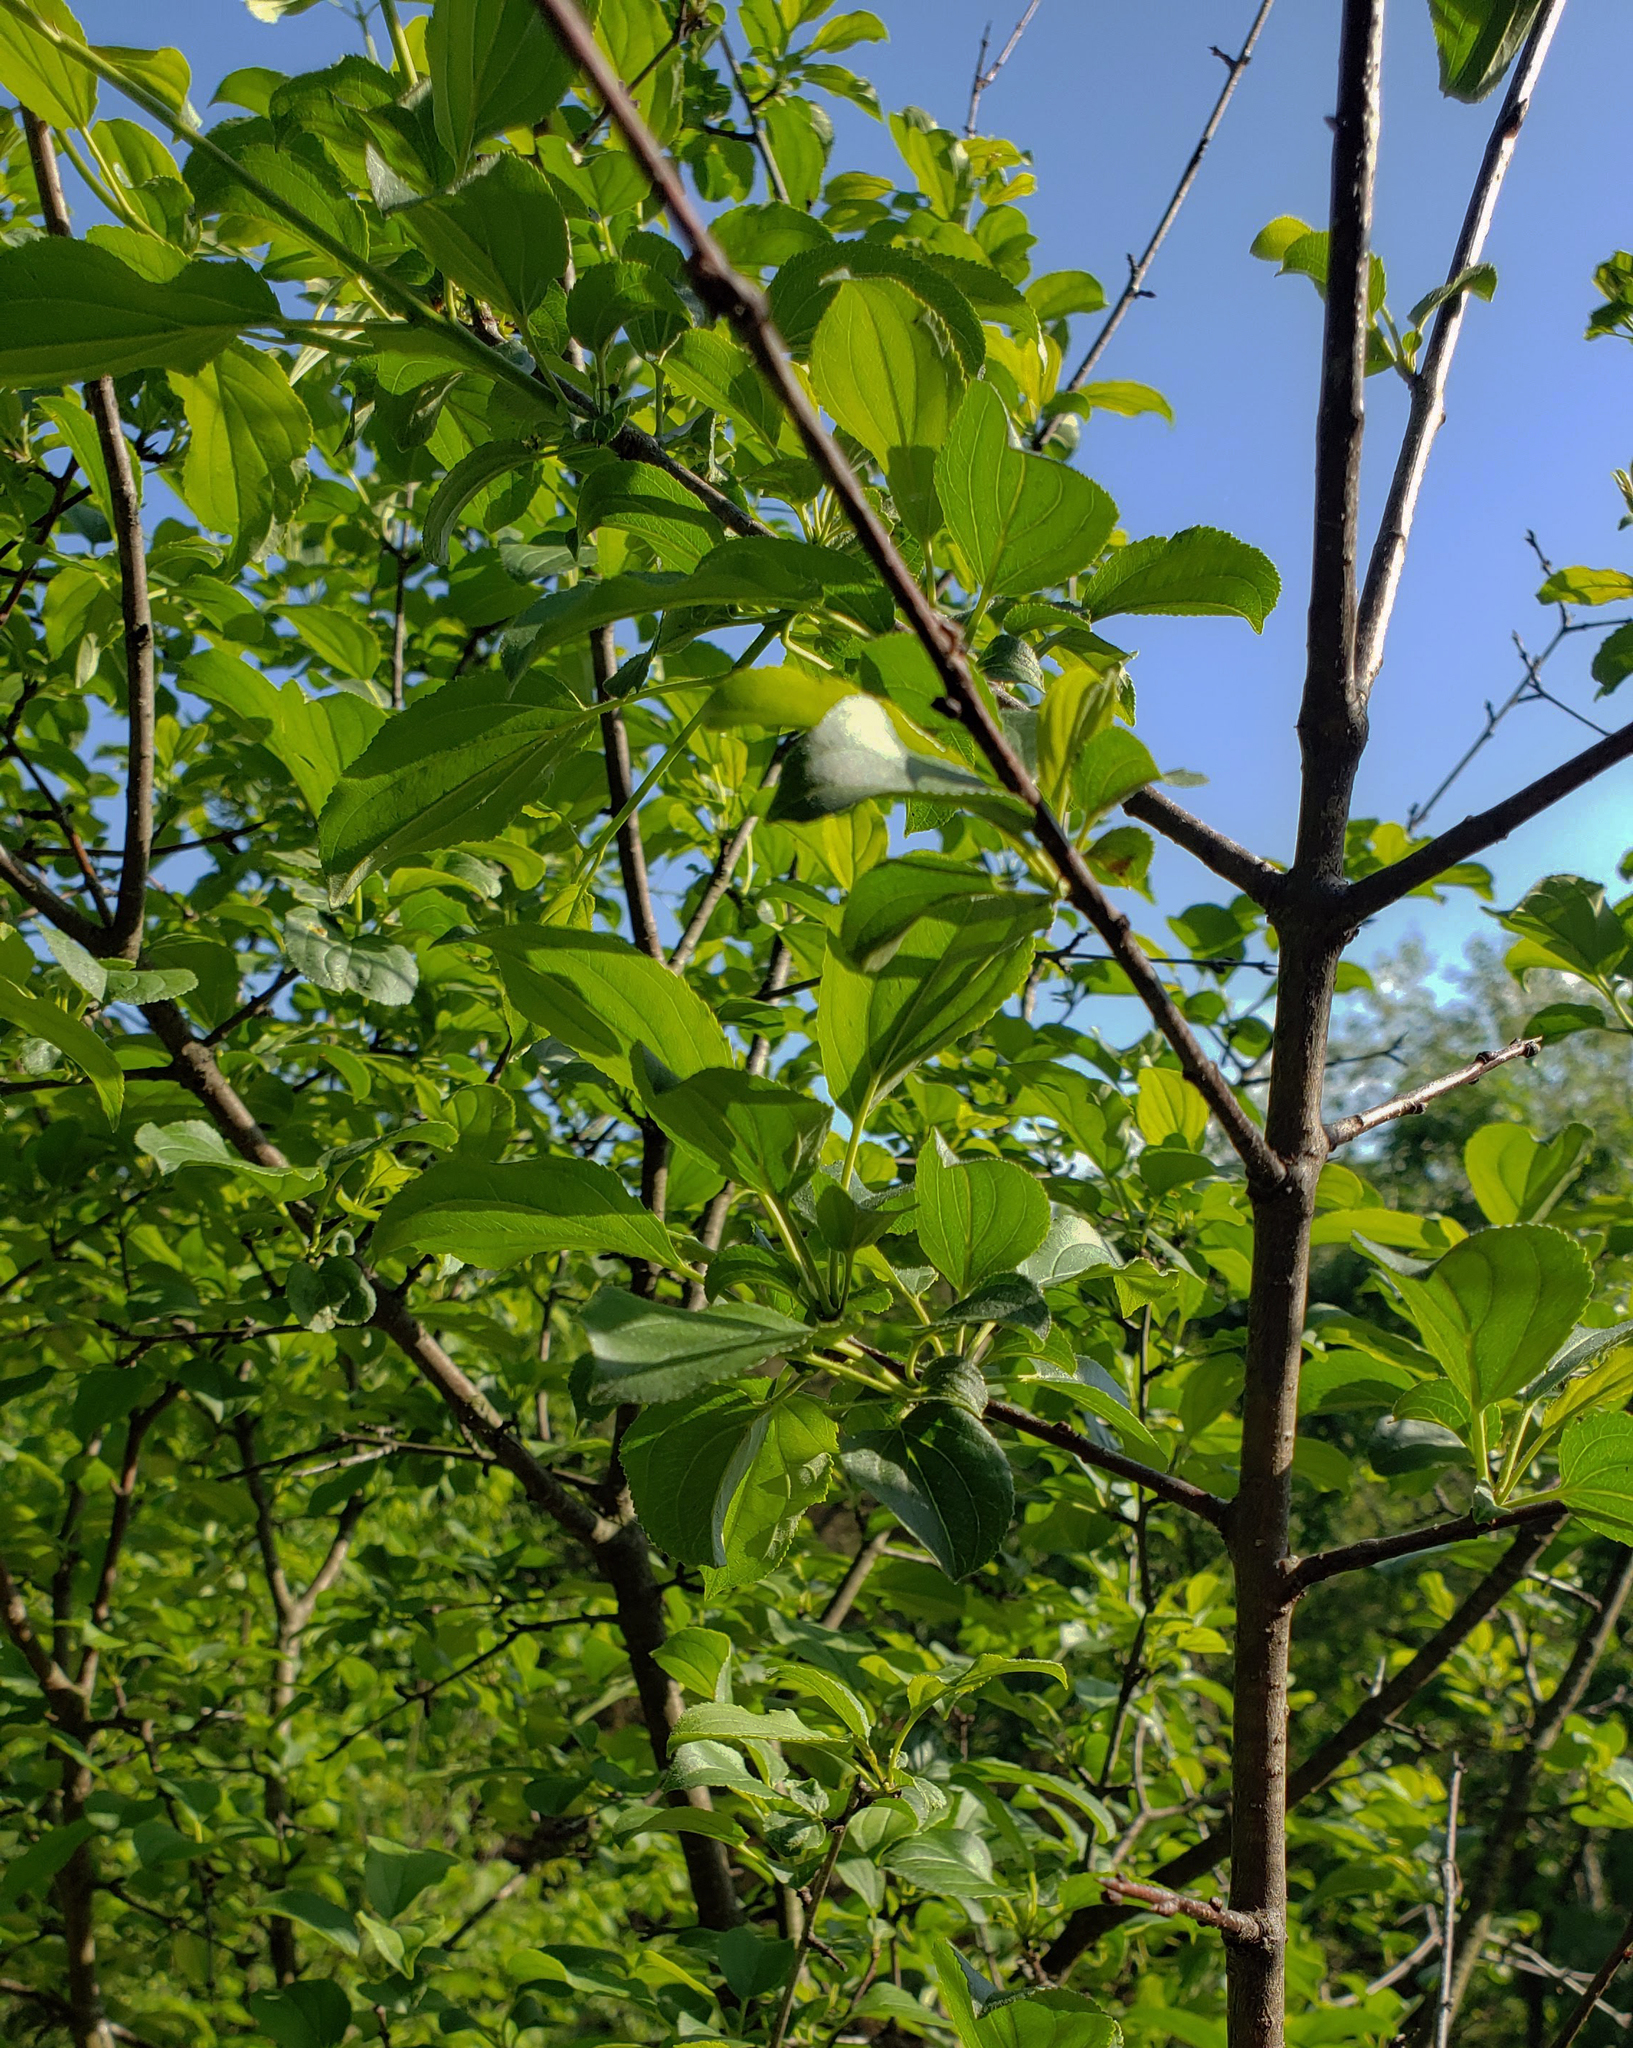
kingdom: Plantae
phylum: Tracheophyta
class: Magnoliopsida
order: Rosales
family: Rhamnaceae
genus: Rhamnus
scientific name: Rhamnus cathartica
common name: Common buckthorn
